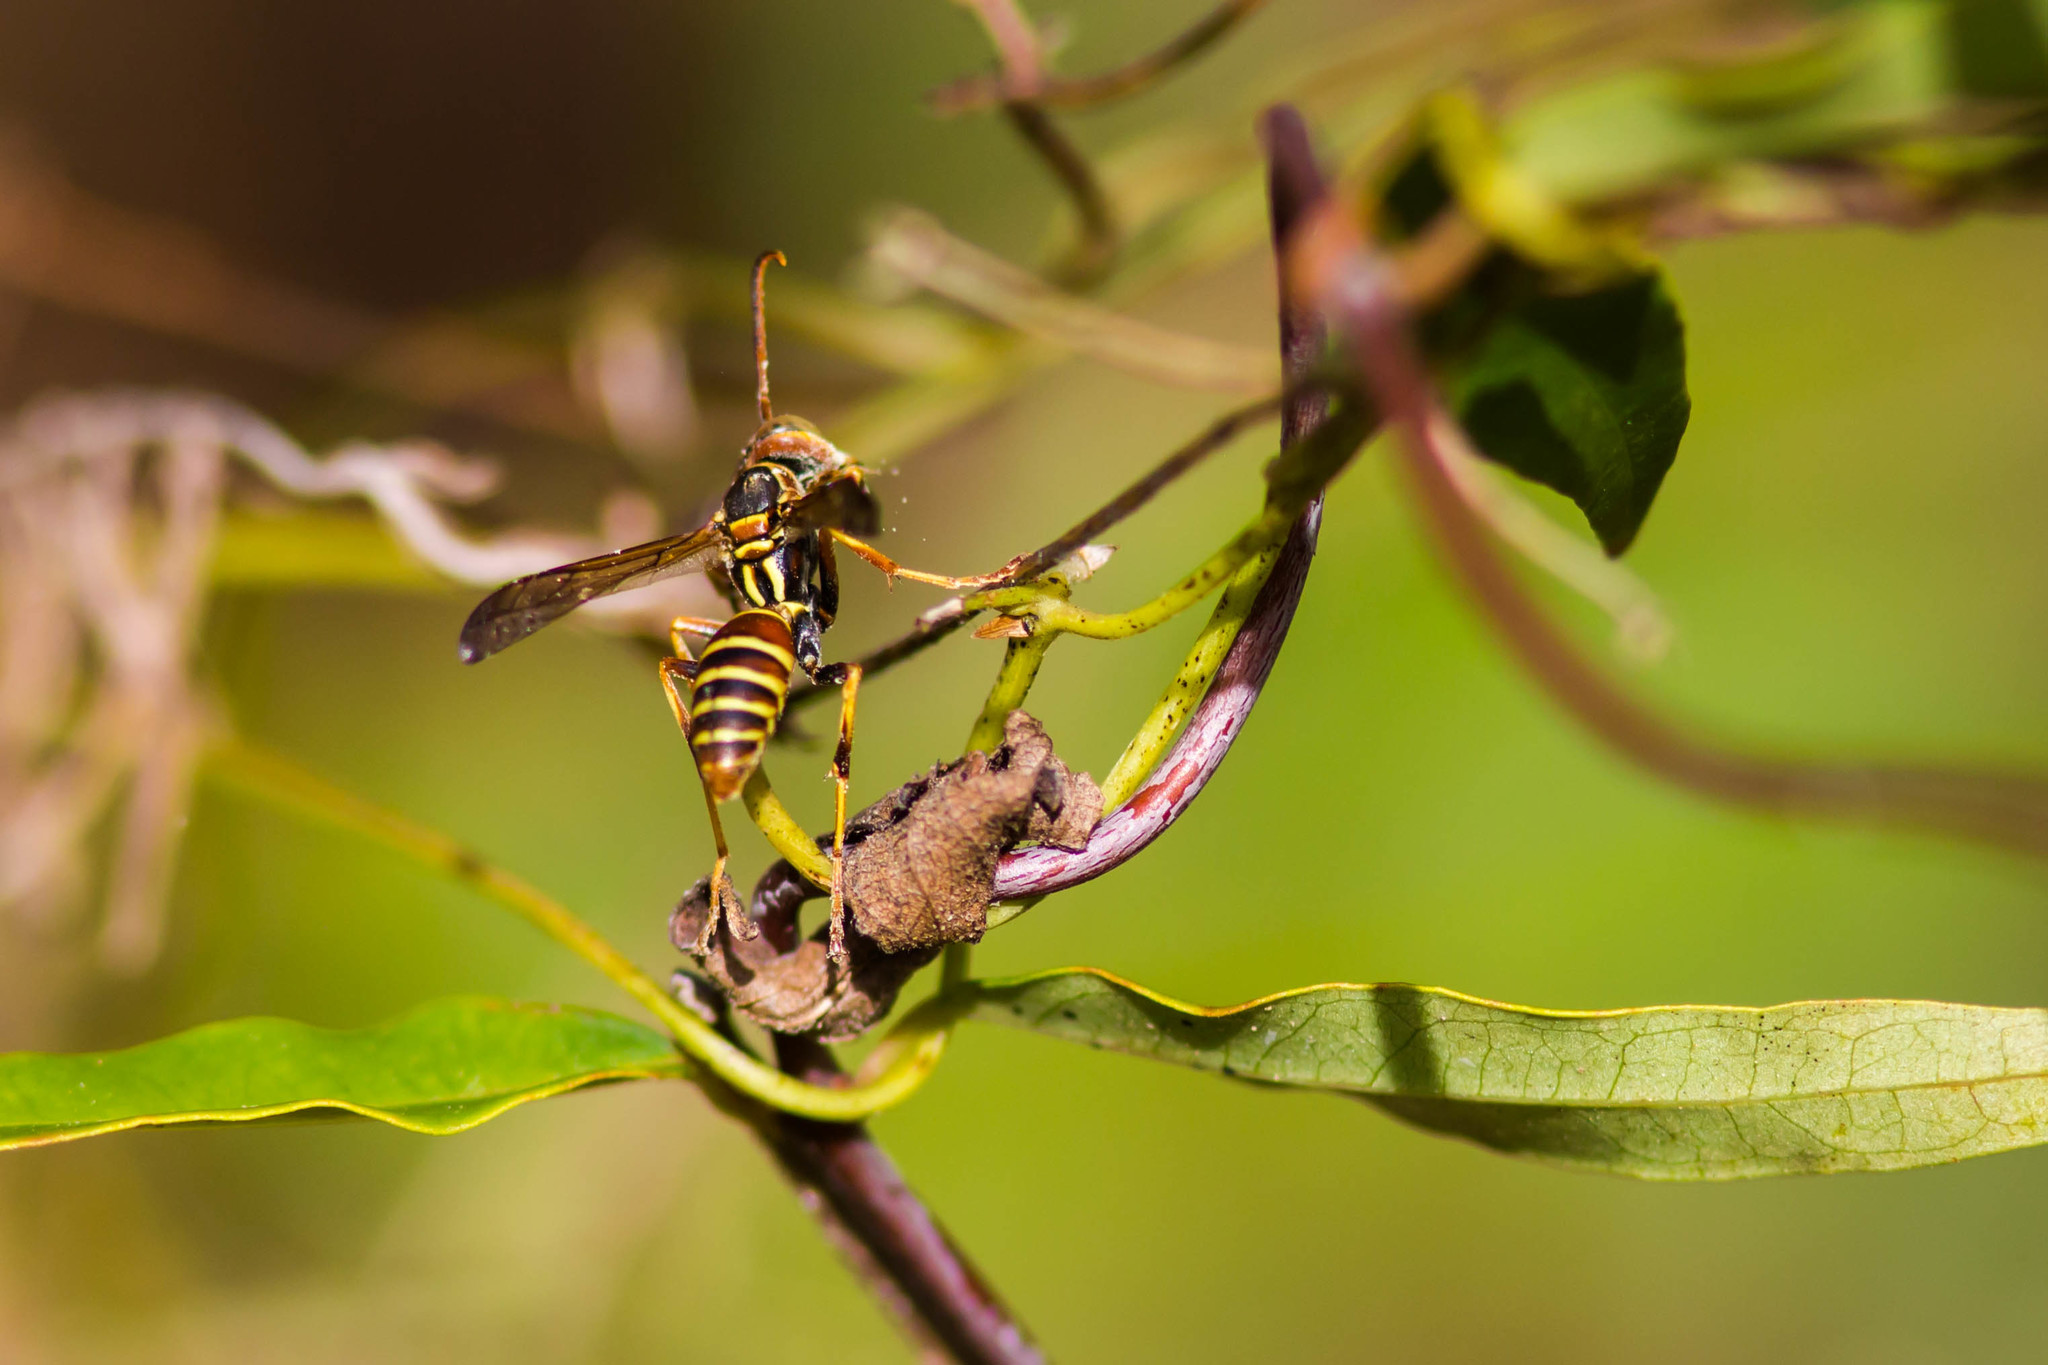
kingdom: Animalia
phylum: Arthropoda
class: Insecta
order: Hymenoptera
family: Eumenidae
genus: Polistes
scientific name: Polistes dorsalis
